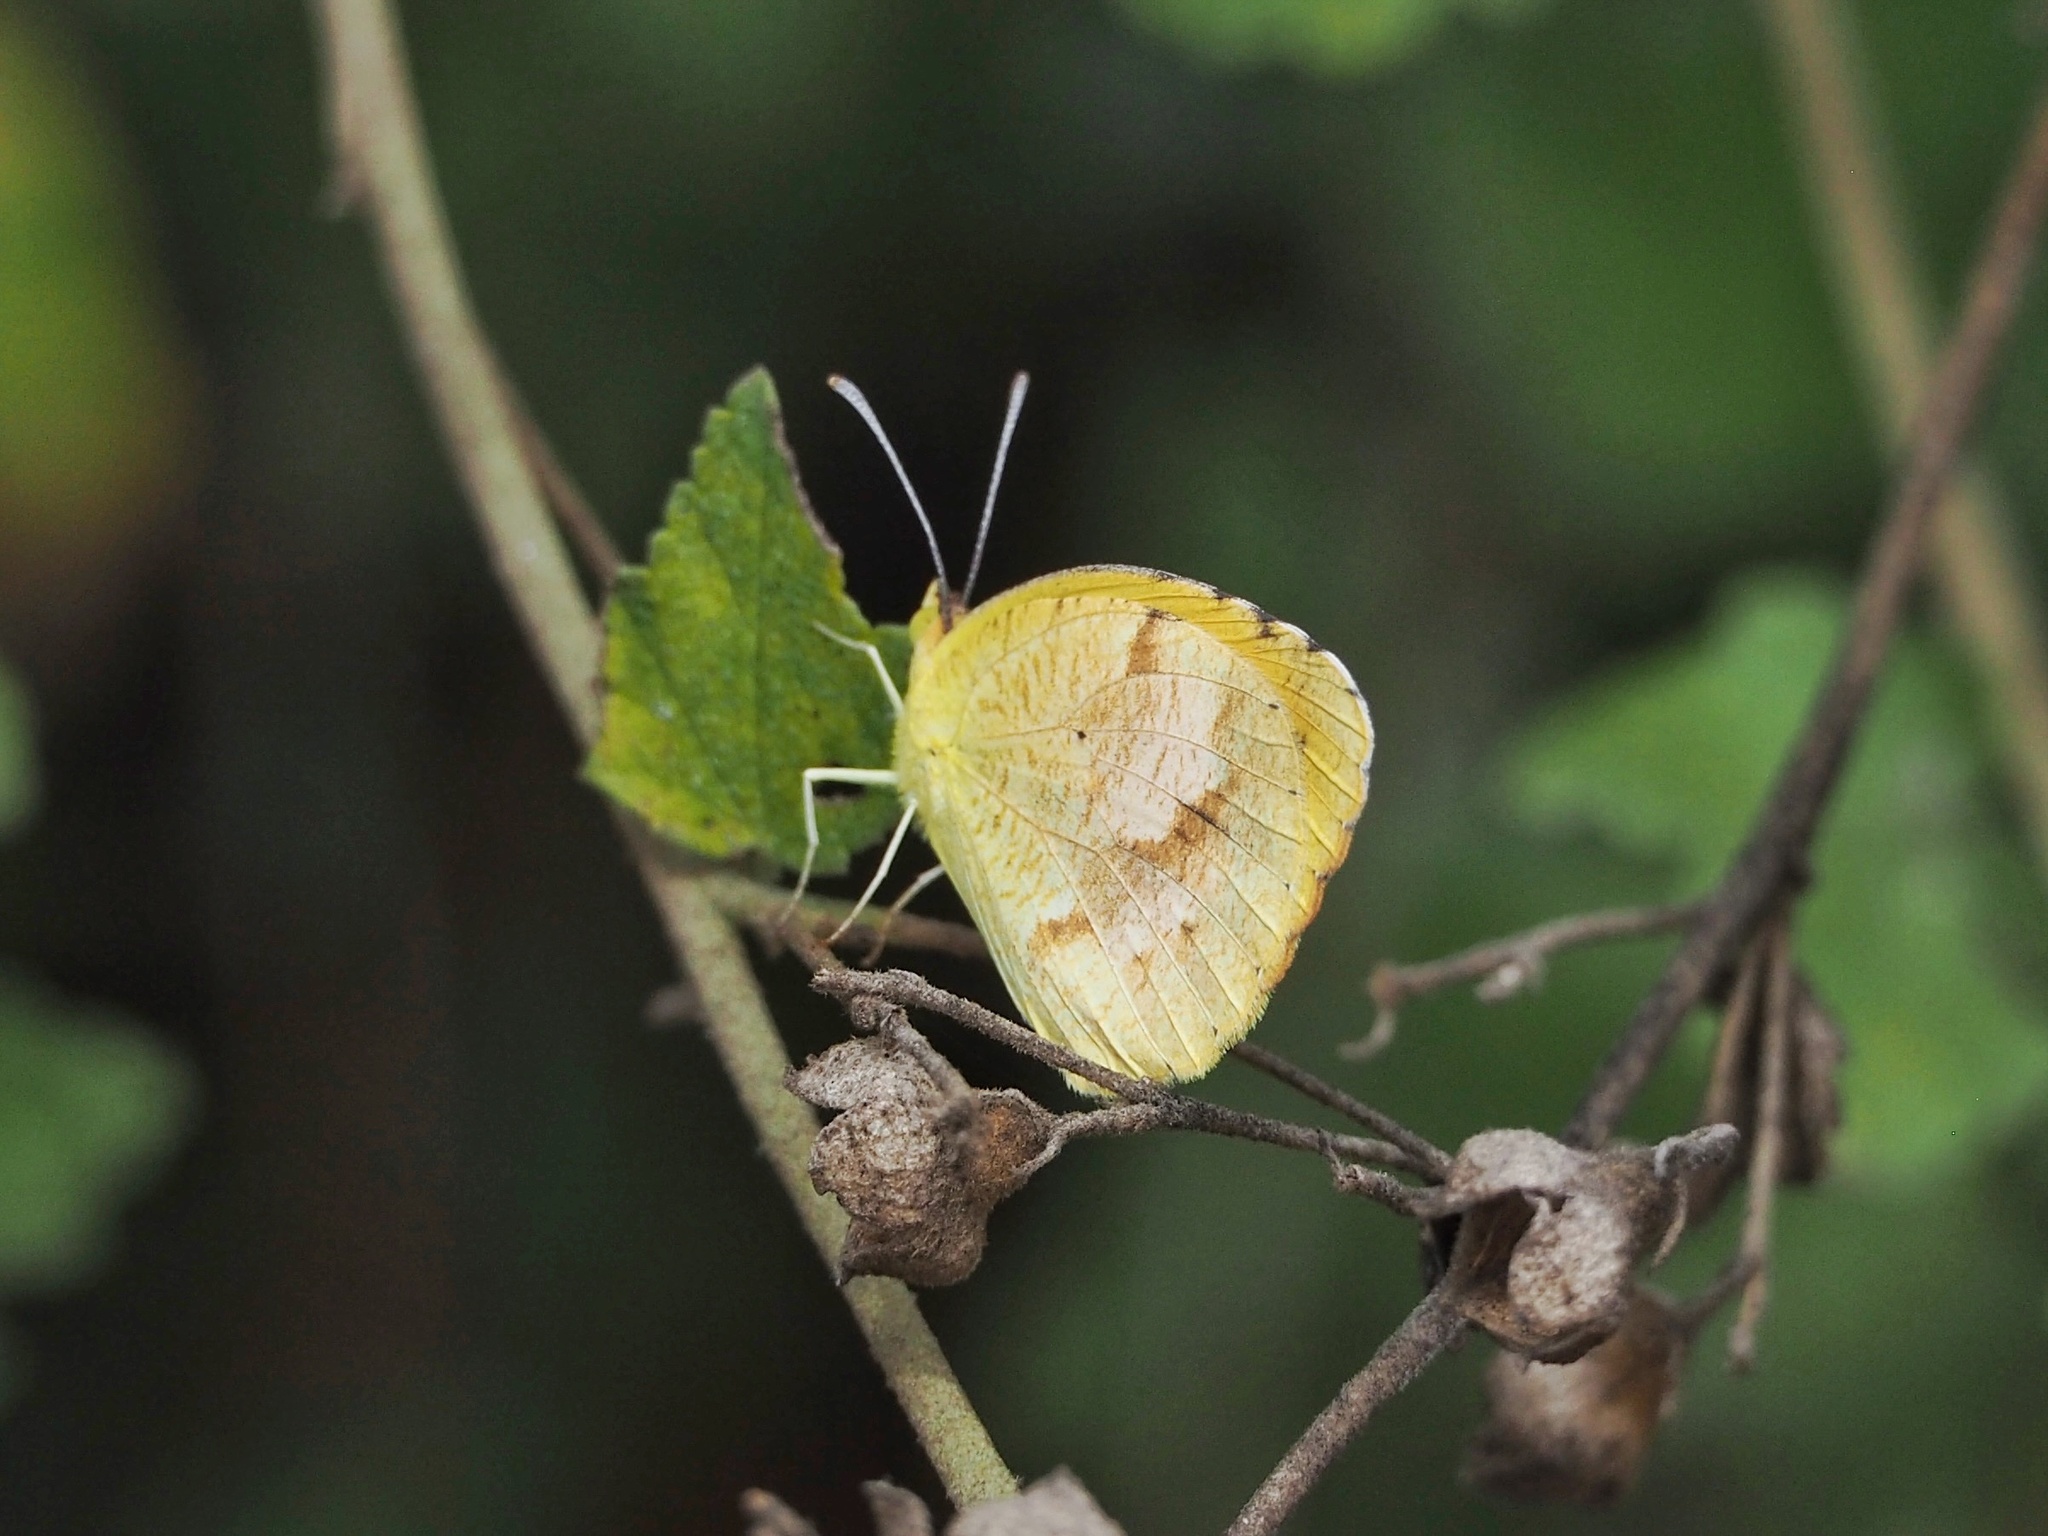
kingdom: Animalia
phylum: Arthropoda
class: Insecta
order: Lepidoptera
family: Pieridae
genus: Abaeis
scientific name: Abaeis nicippe
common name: Sleepy orange
